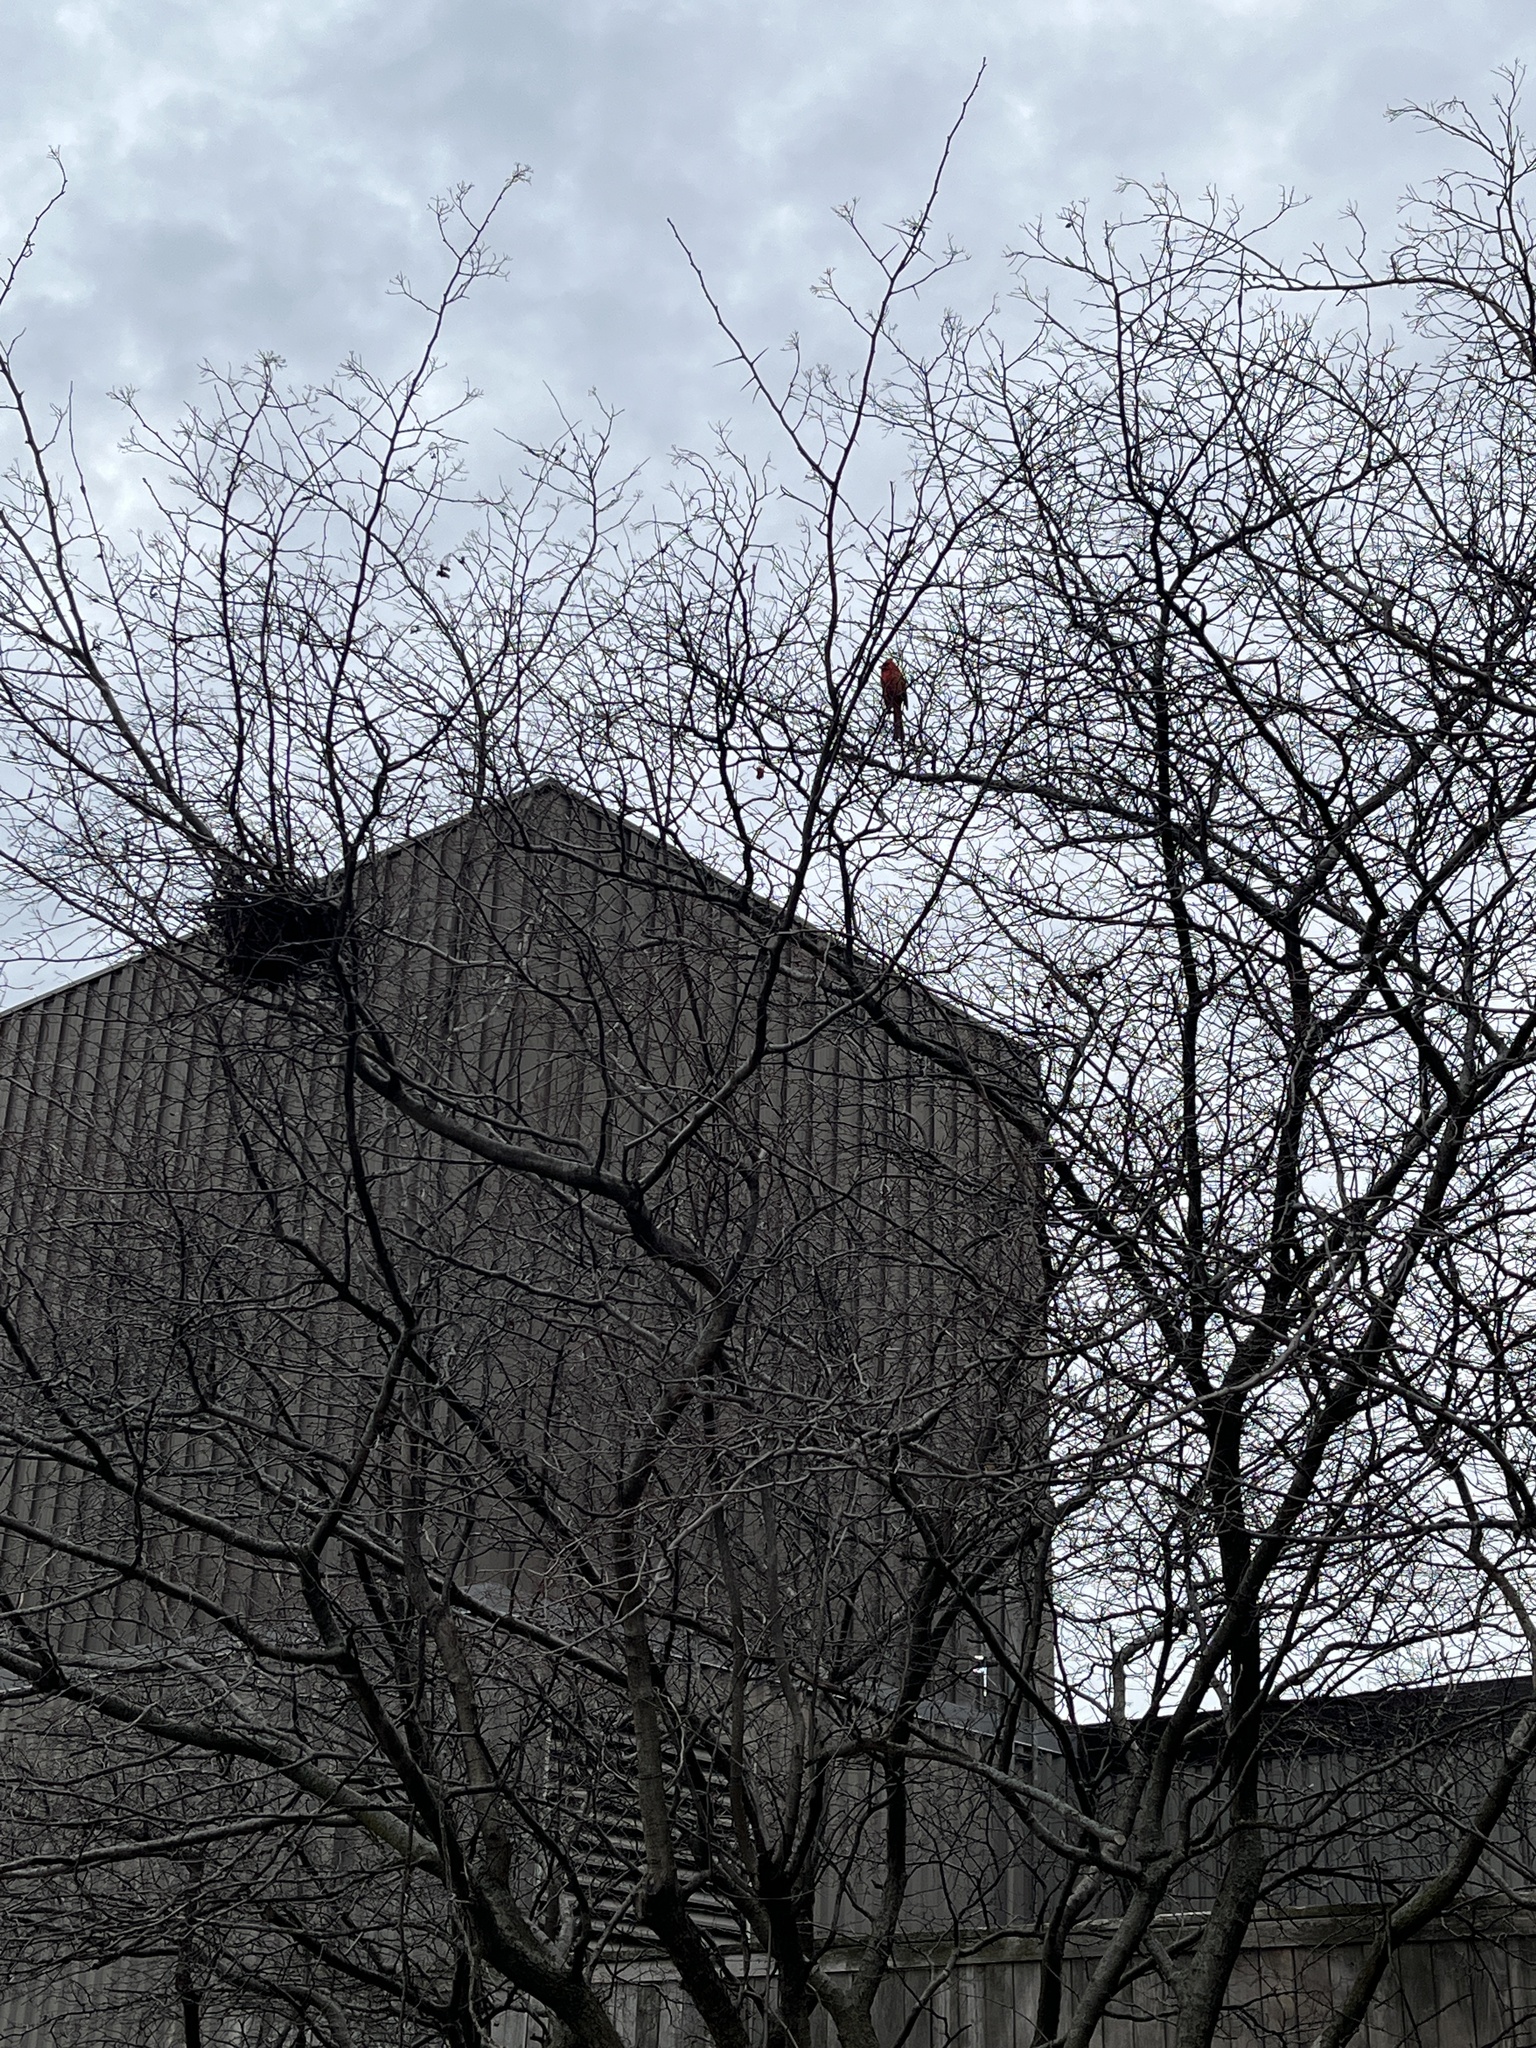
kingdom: Animalia
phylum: Chordata
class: Aves
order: Passeriformes
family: Cardinalidae
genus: Cardinalis
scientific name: Cardinalis cardinalis
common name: Northern cardinal
